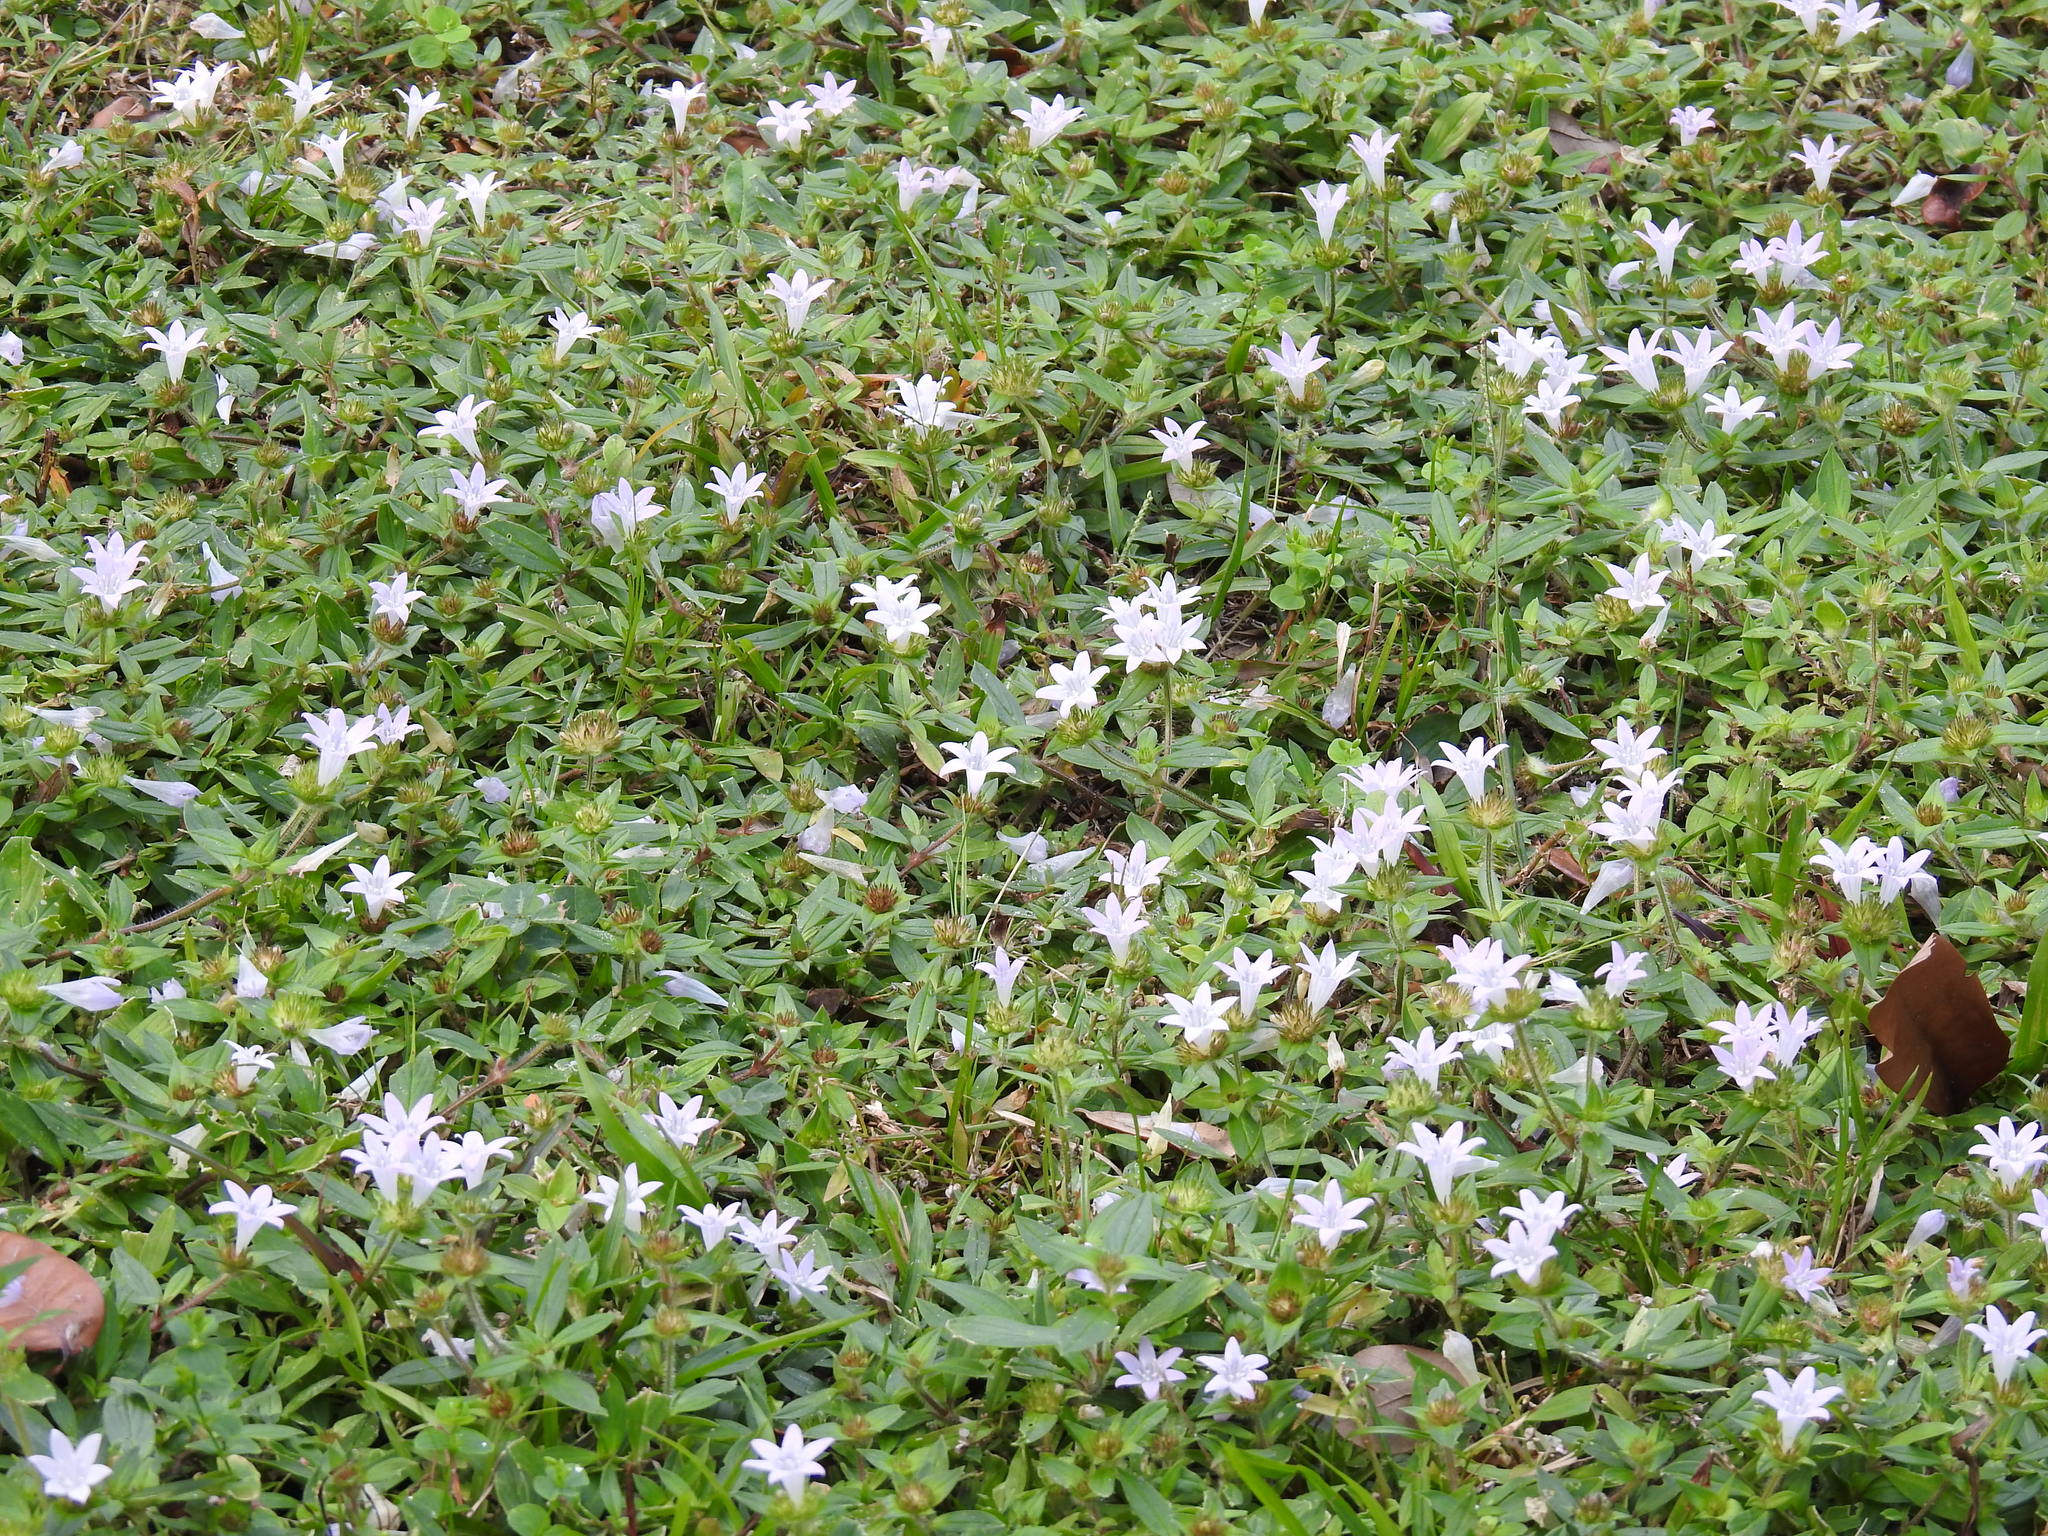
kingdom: Plantae
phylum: Tracheophyta
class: Magnoliopsida
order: Gentianales
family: Rubiaceae
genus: Richardia
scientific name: Richardia grandiflora
